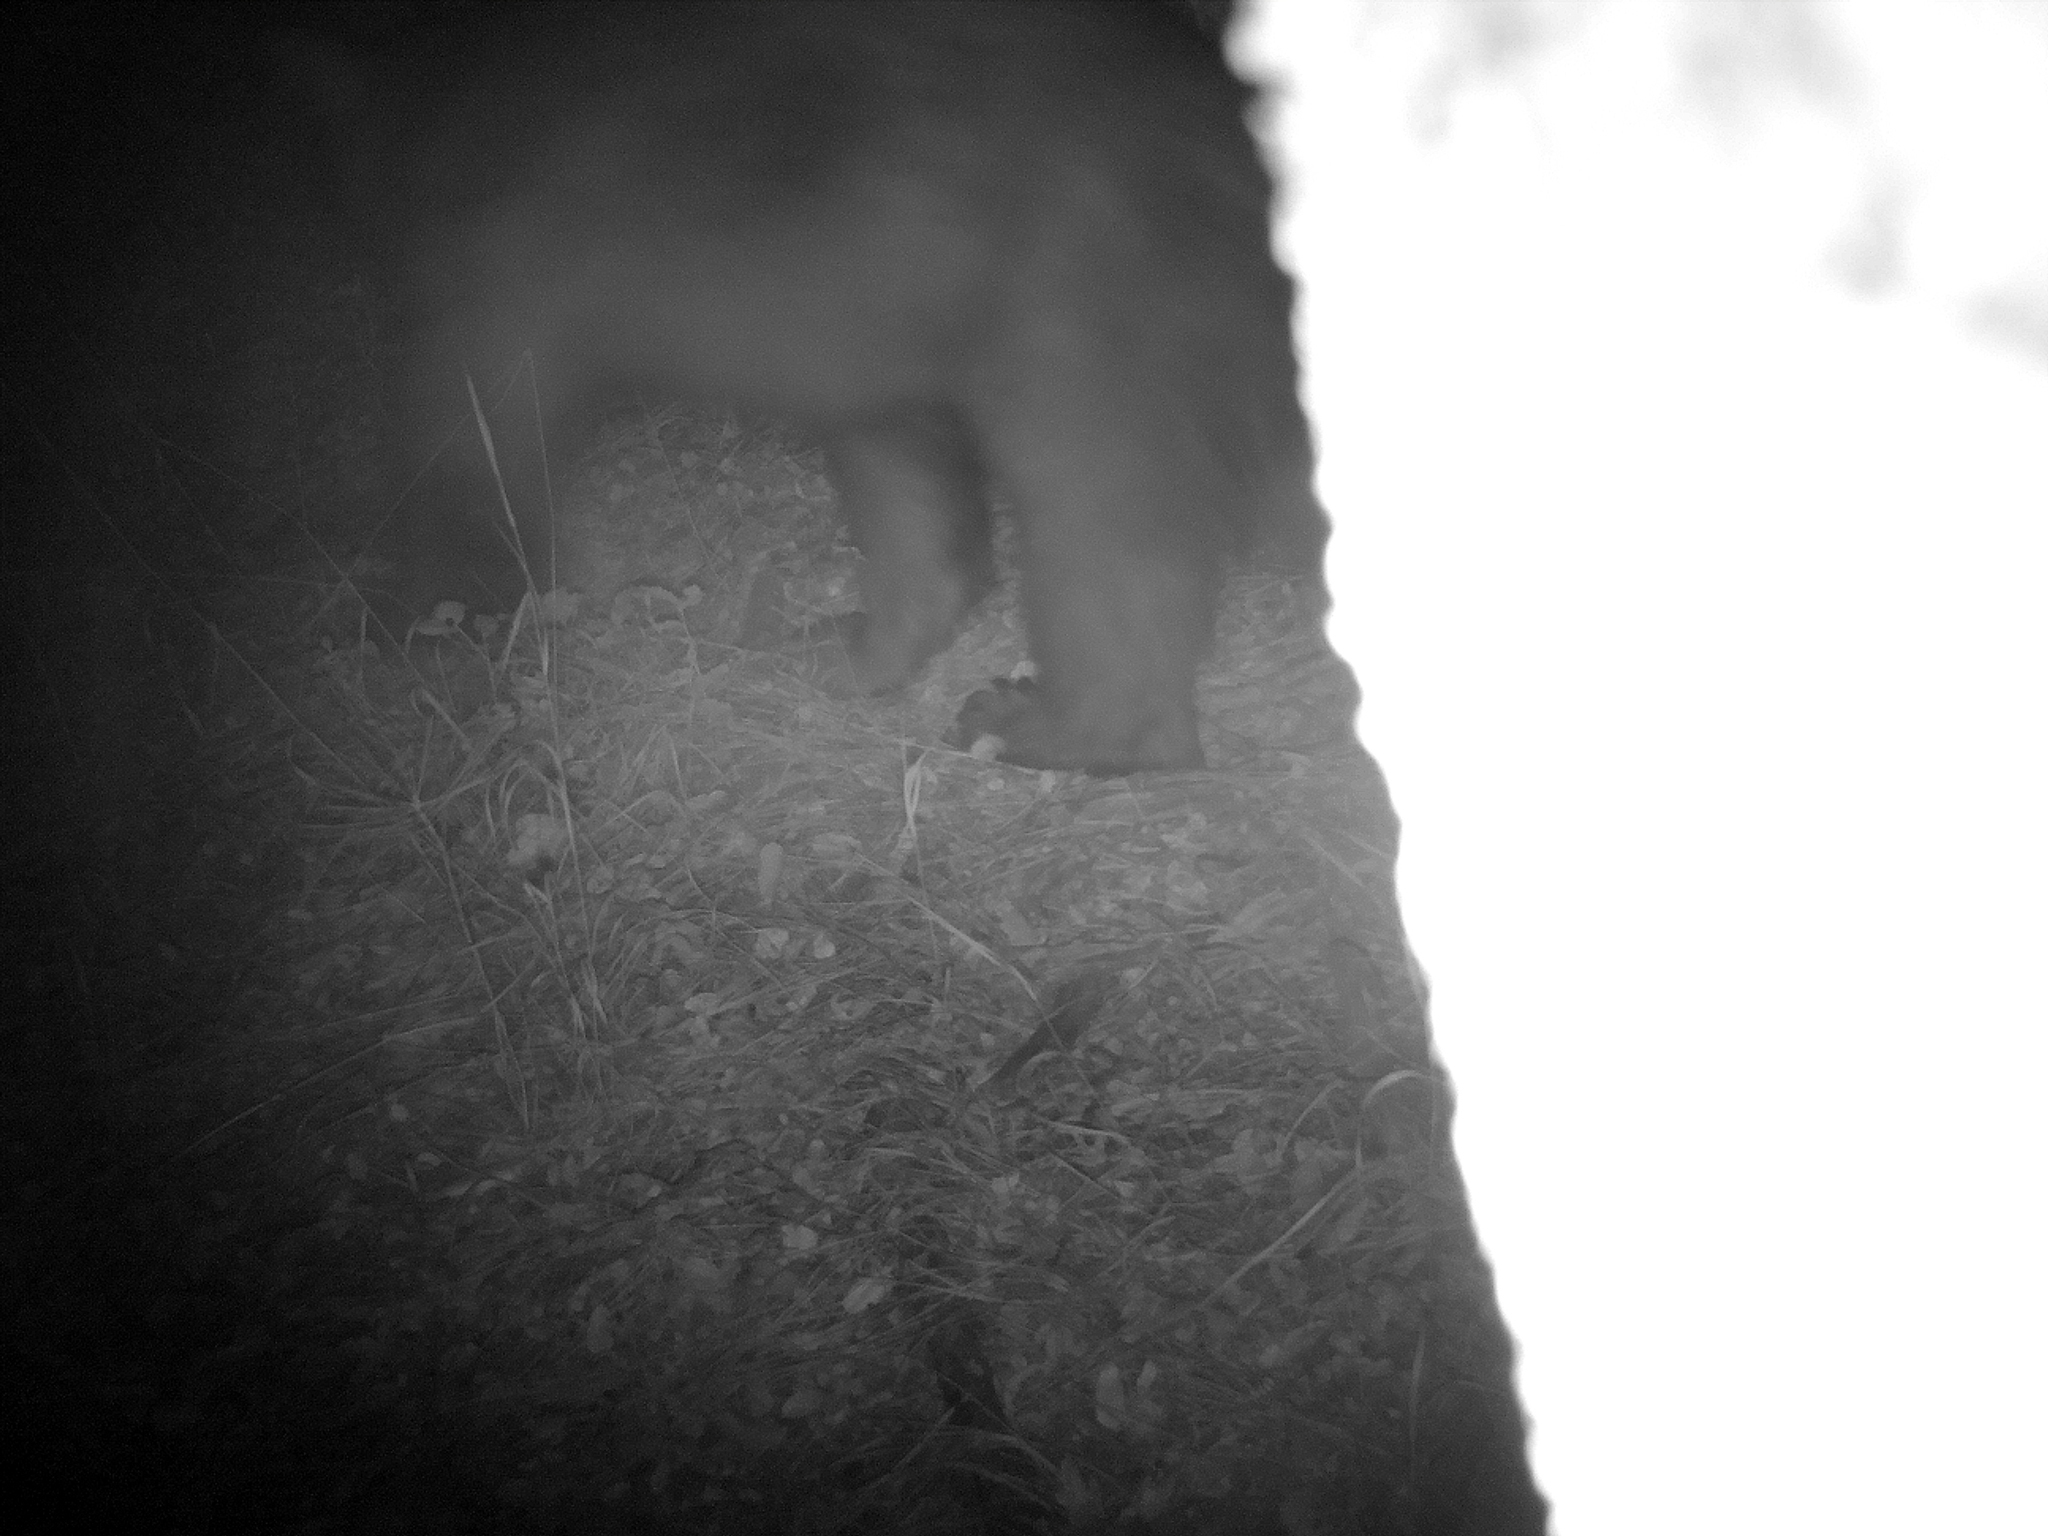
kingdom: Animalia
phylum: Chordata
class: Mammalia
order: Carnivora
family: Ursidae
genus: Ursus
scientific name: Ursus americanus
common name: American black bear
